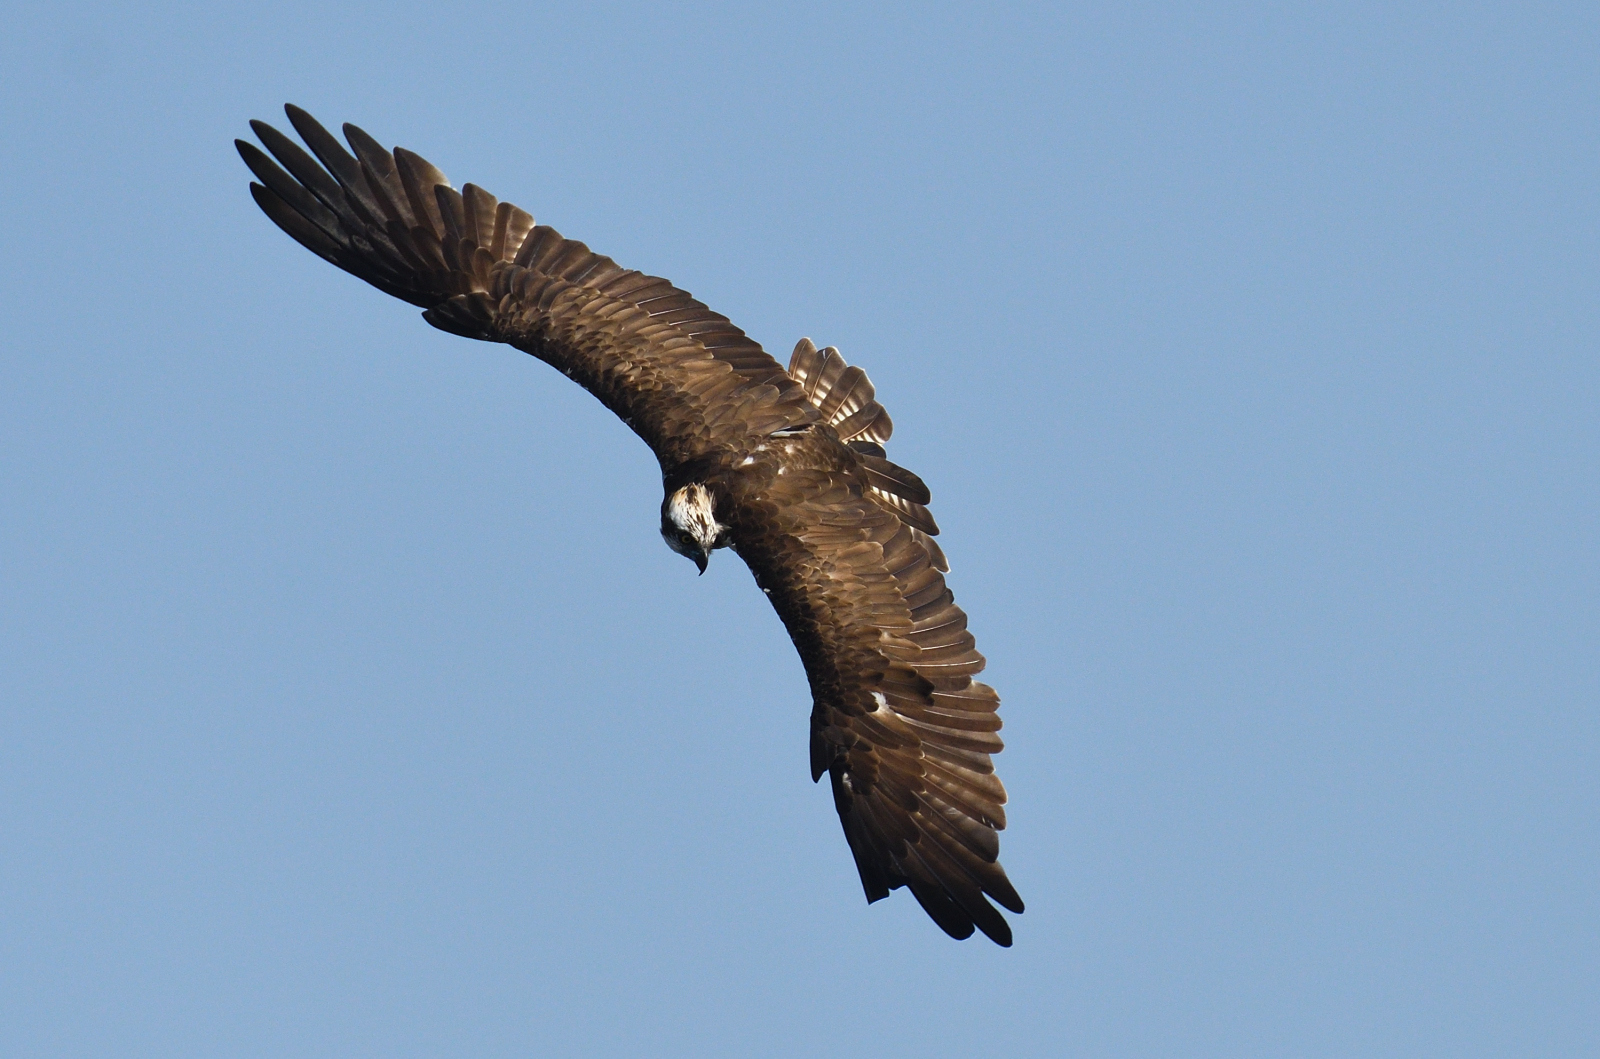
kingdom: Animalia
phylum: Chordata
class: Aves
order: Accipitriformes
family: Pandionidae
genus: Pandion
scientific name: Pandion haliaetus
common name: Osprey
